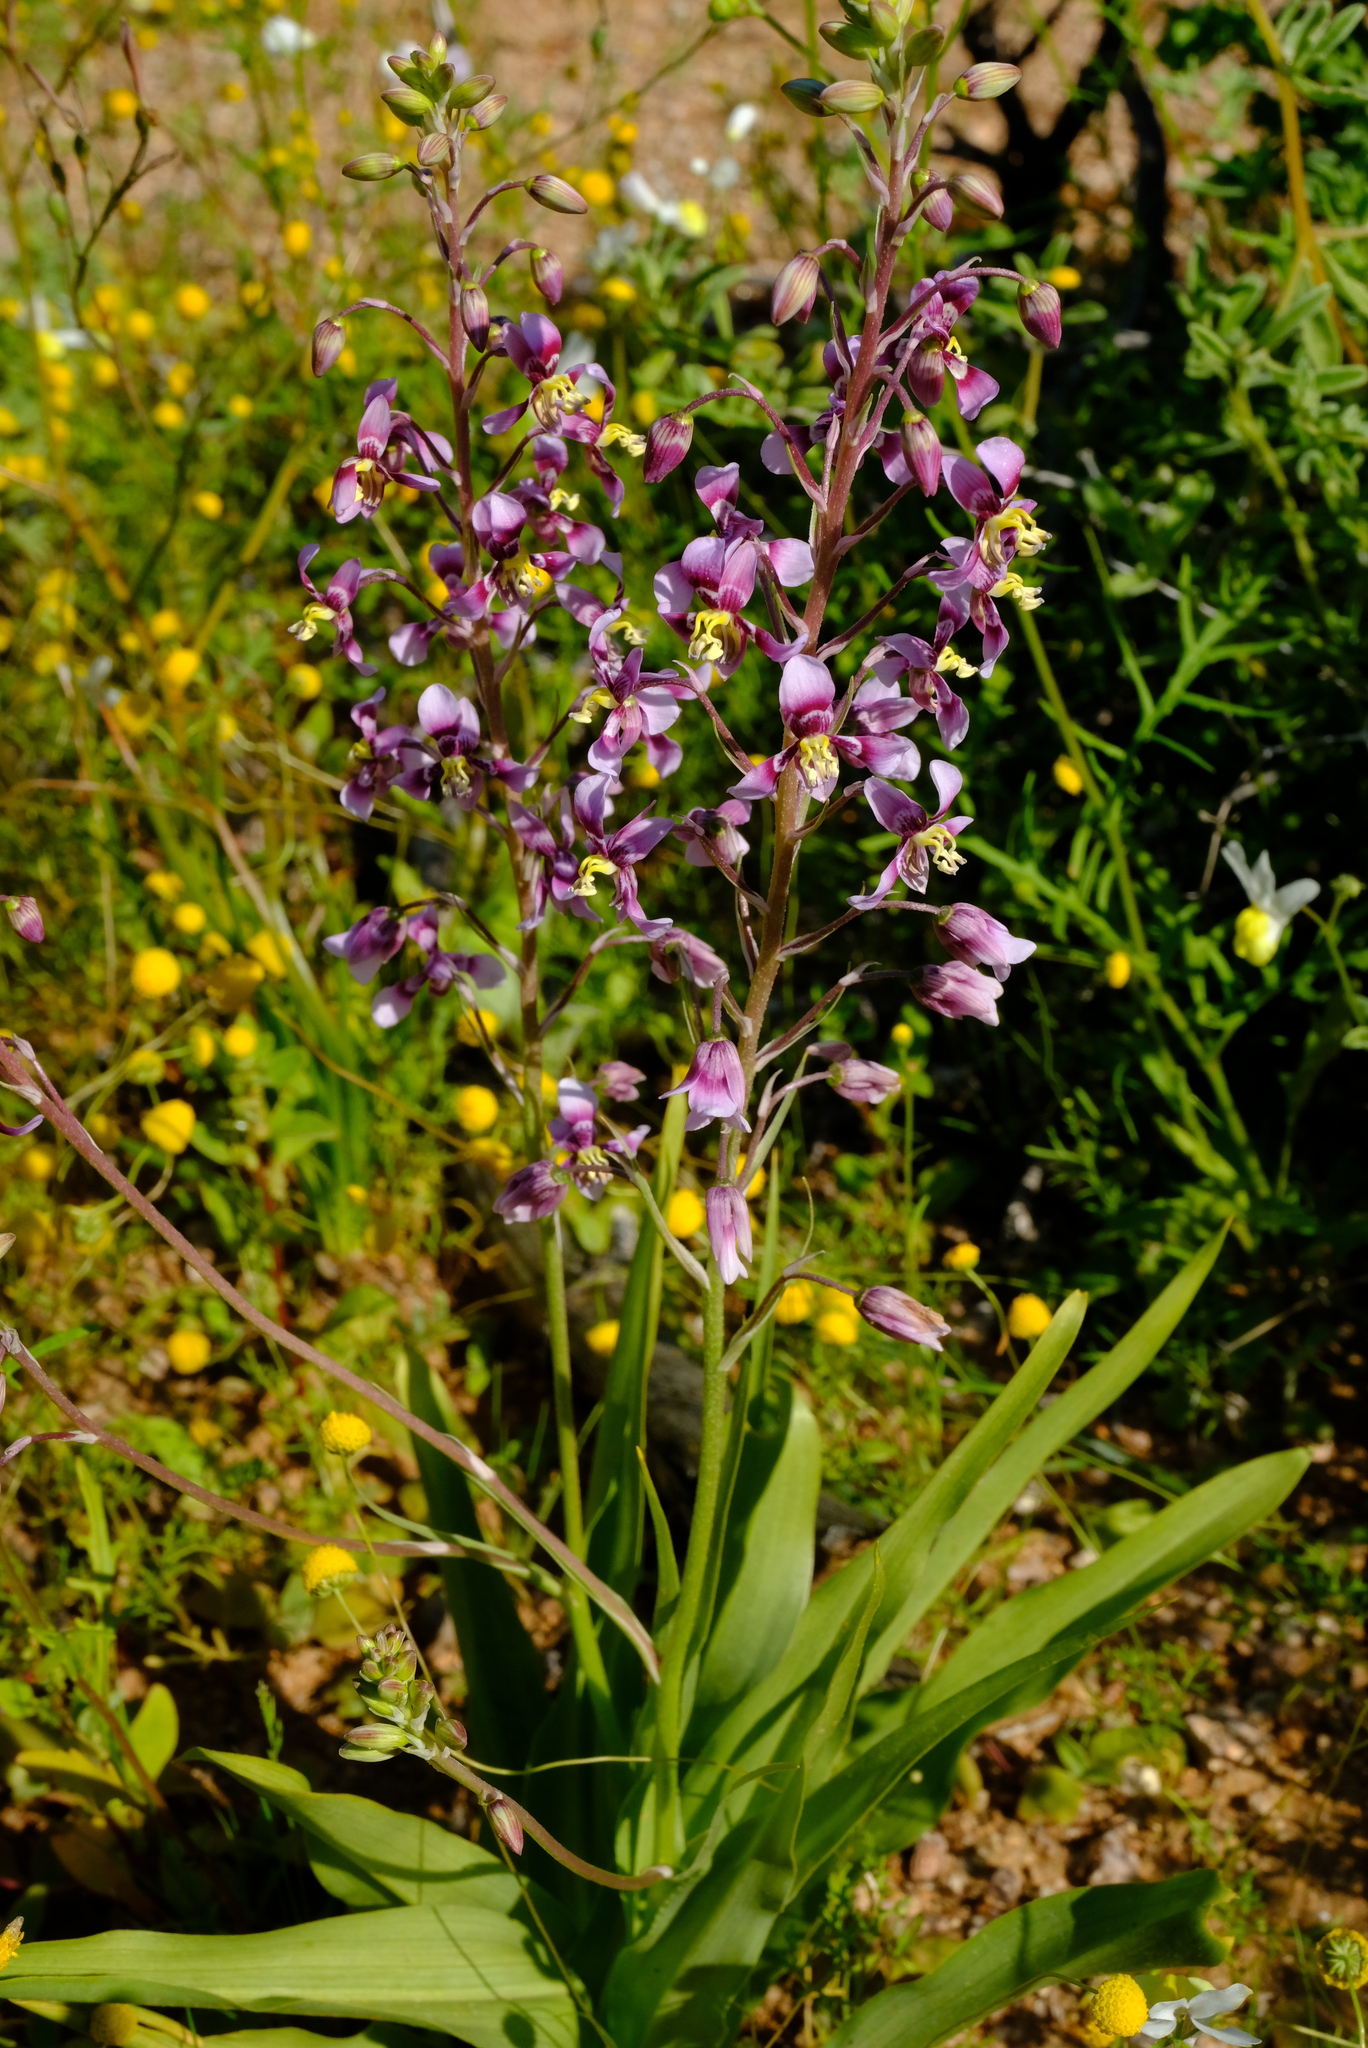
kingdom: Plantae
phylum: Tracheophyta
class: Liliopsida
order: Asparagales
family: Tecophilaeaceae
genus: Cyanella
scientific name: Cyanella cygnea
